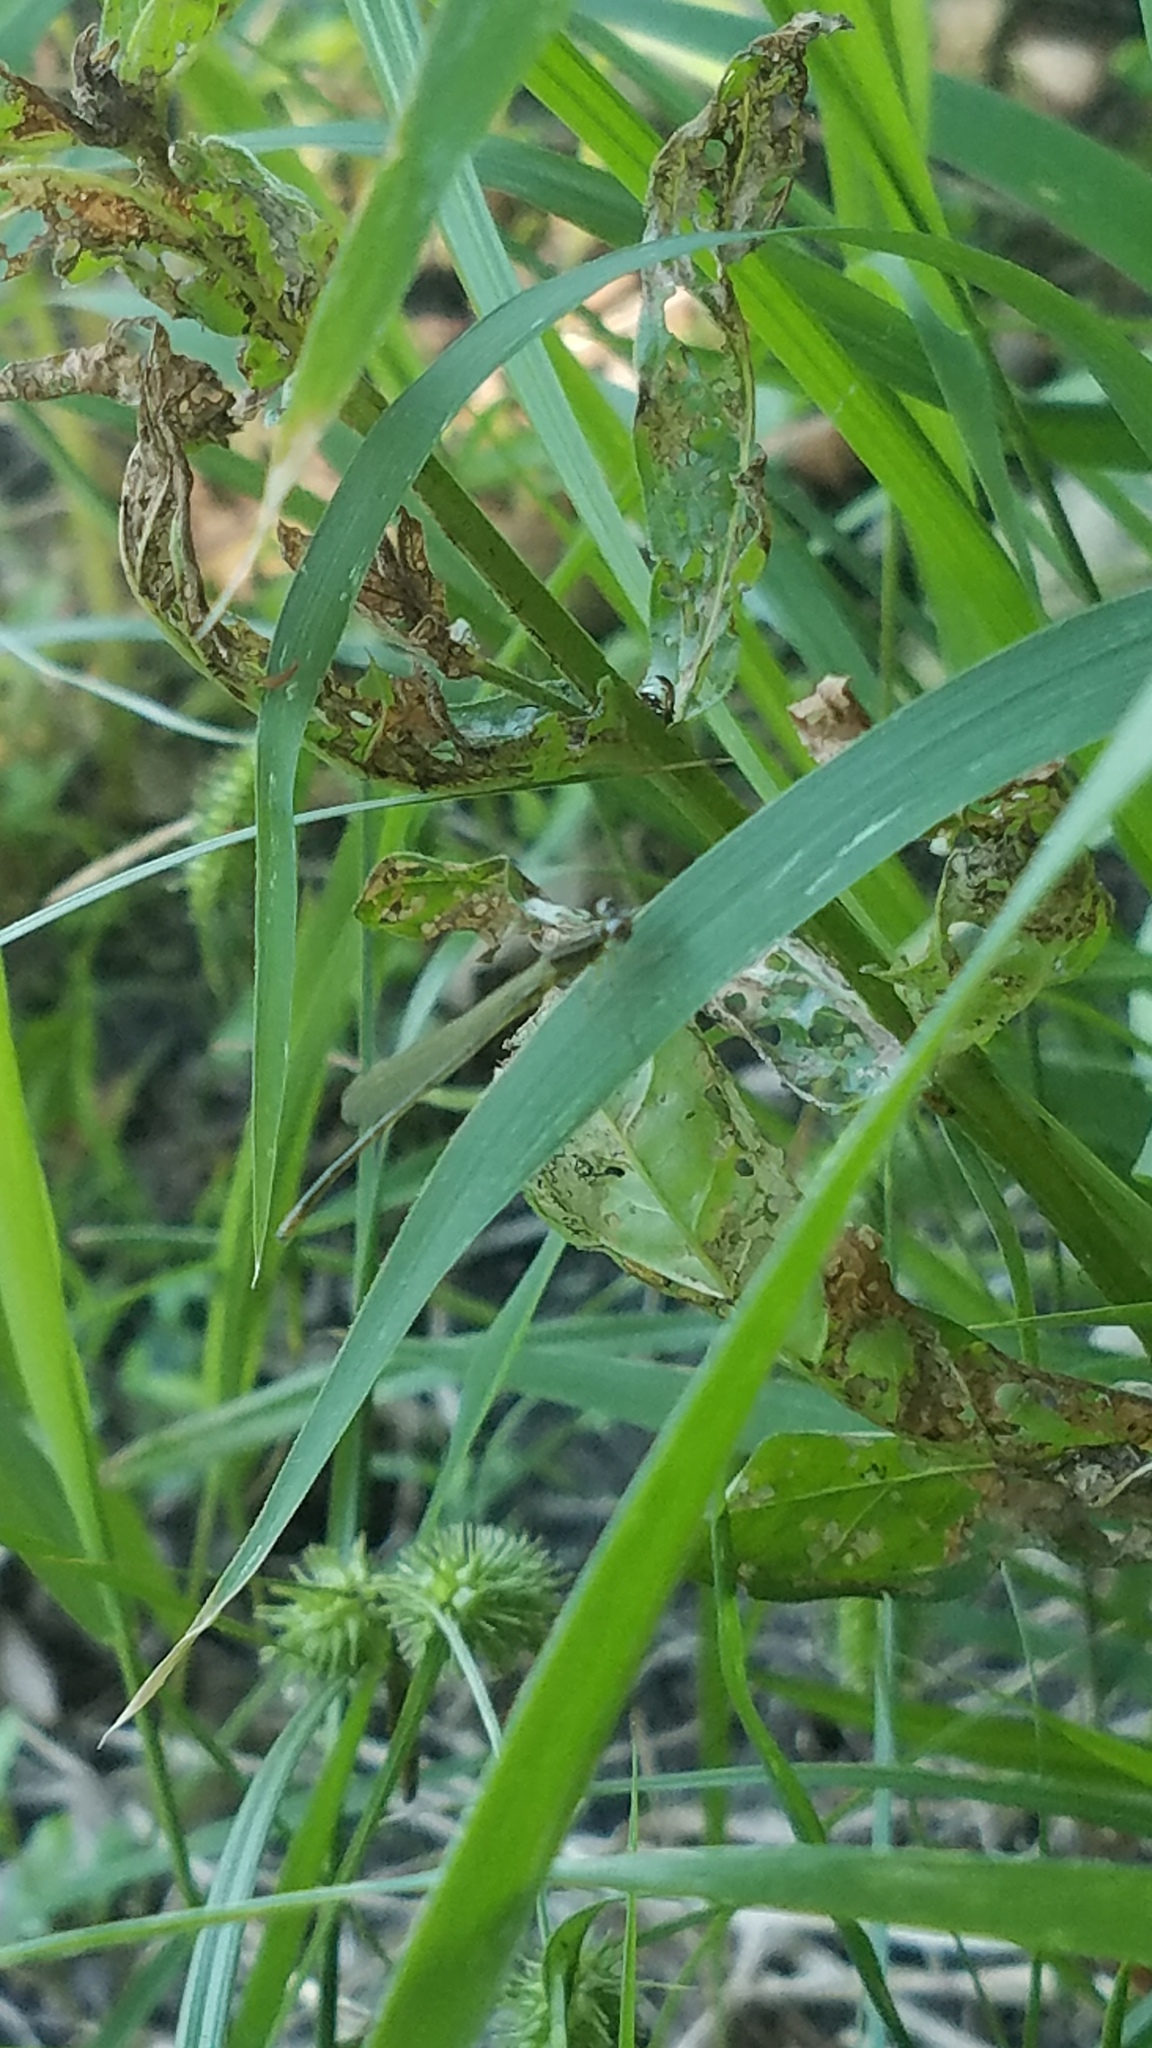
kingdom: Plantae
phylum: Tracheophyta
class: Liliopsida
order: Poales
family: Cyperaceae
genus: Carex
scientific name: Carex lurida
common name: Sallow sedge
